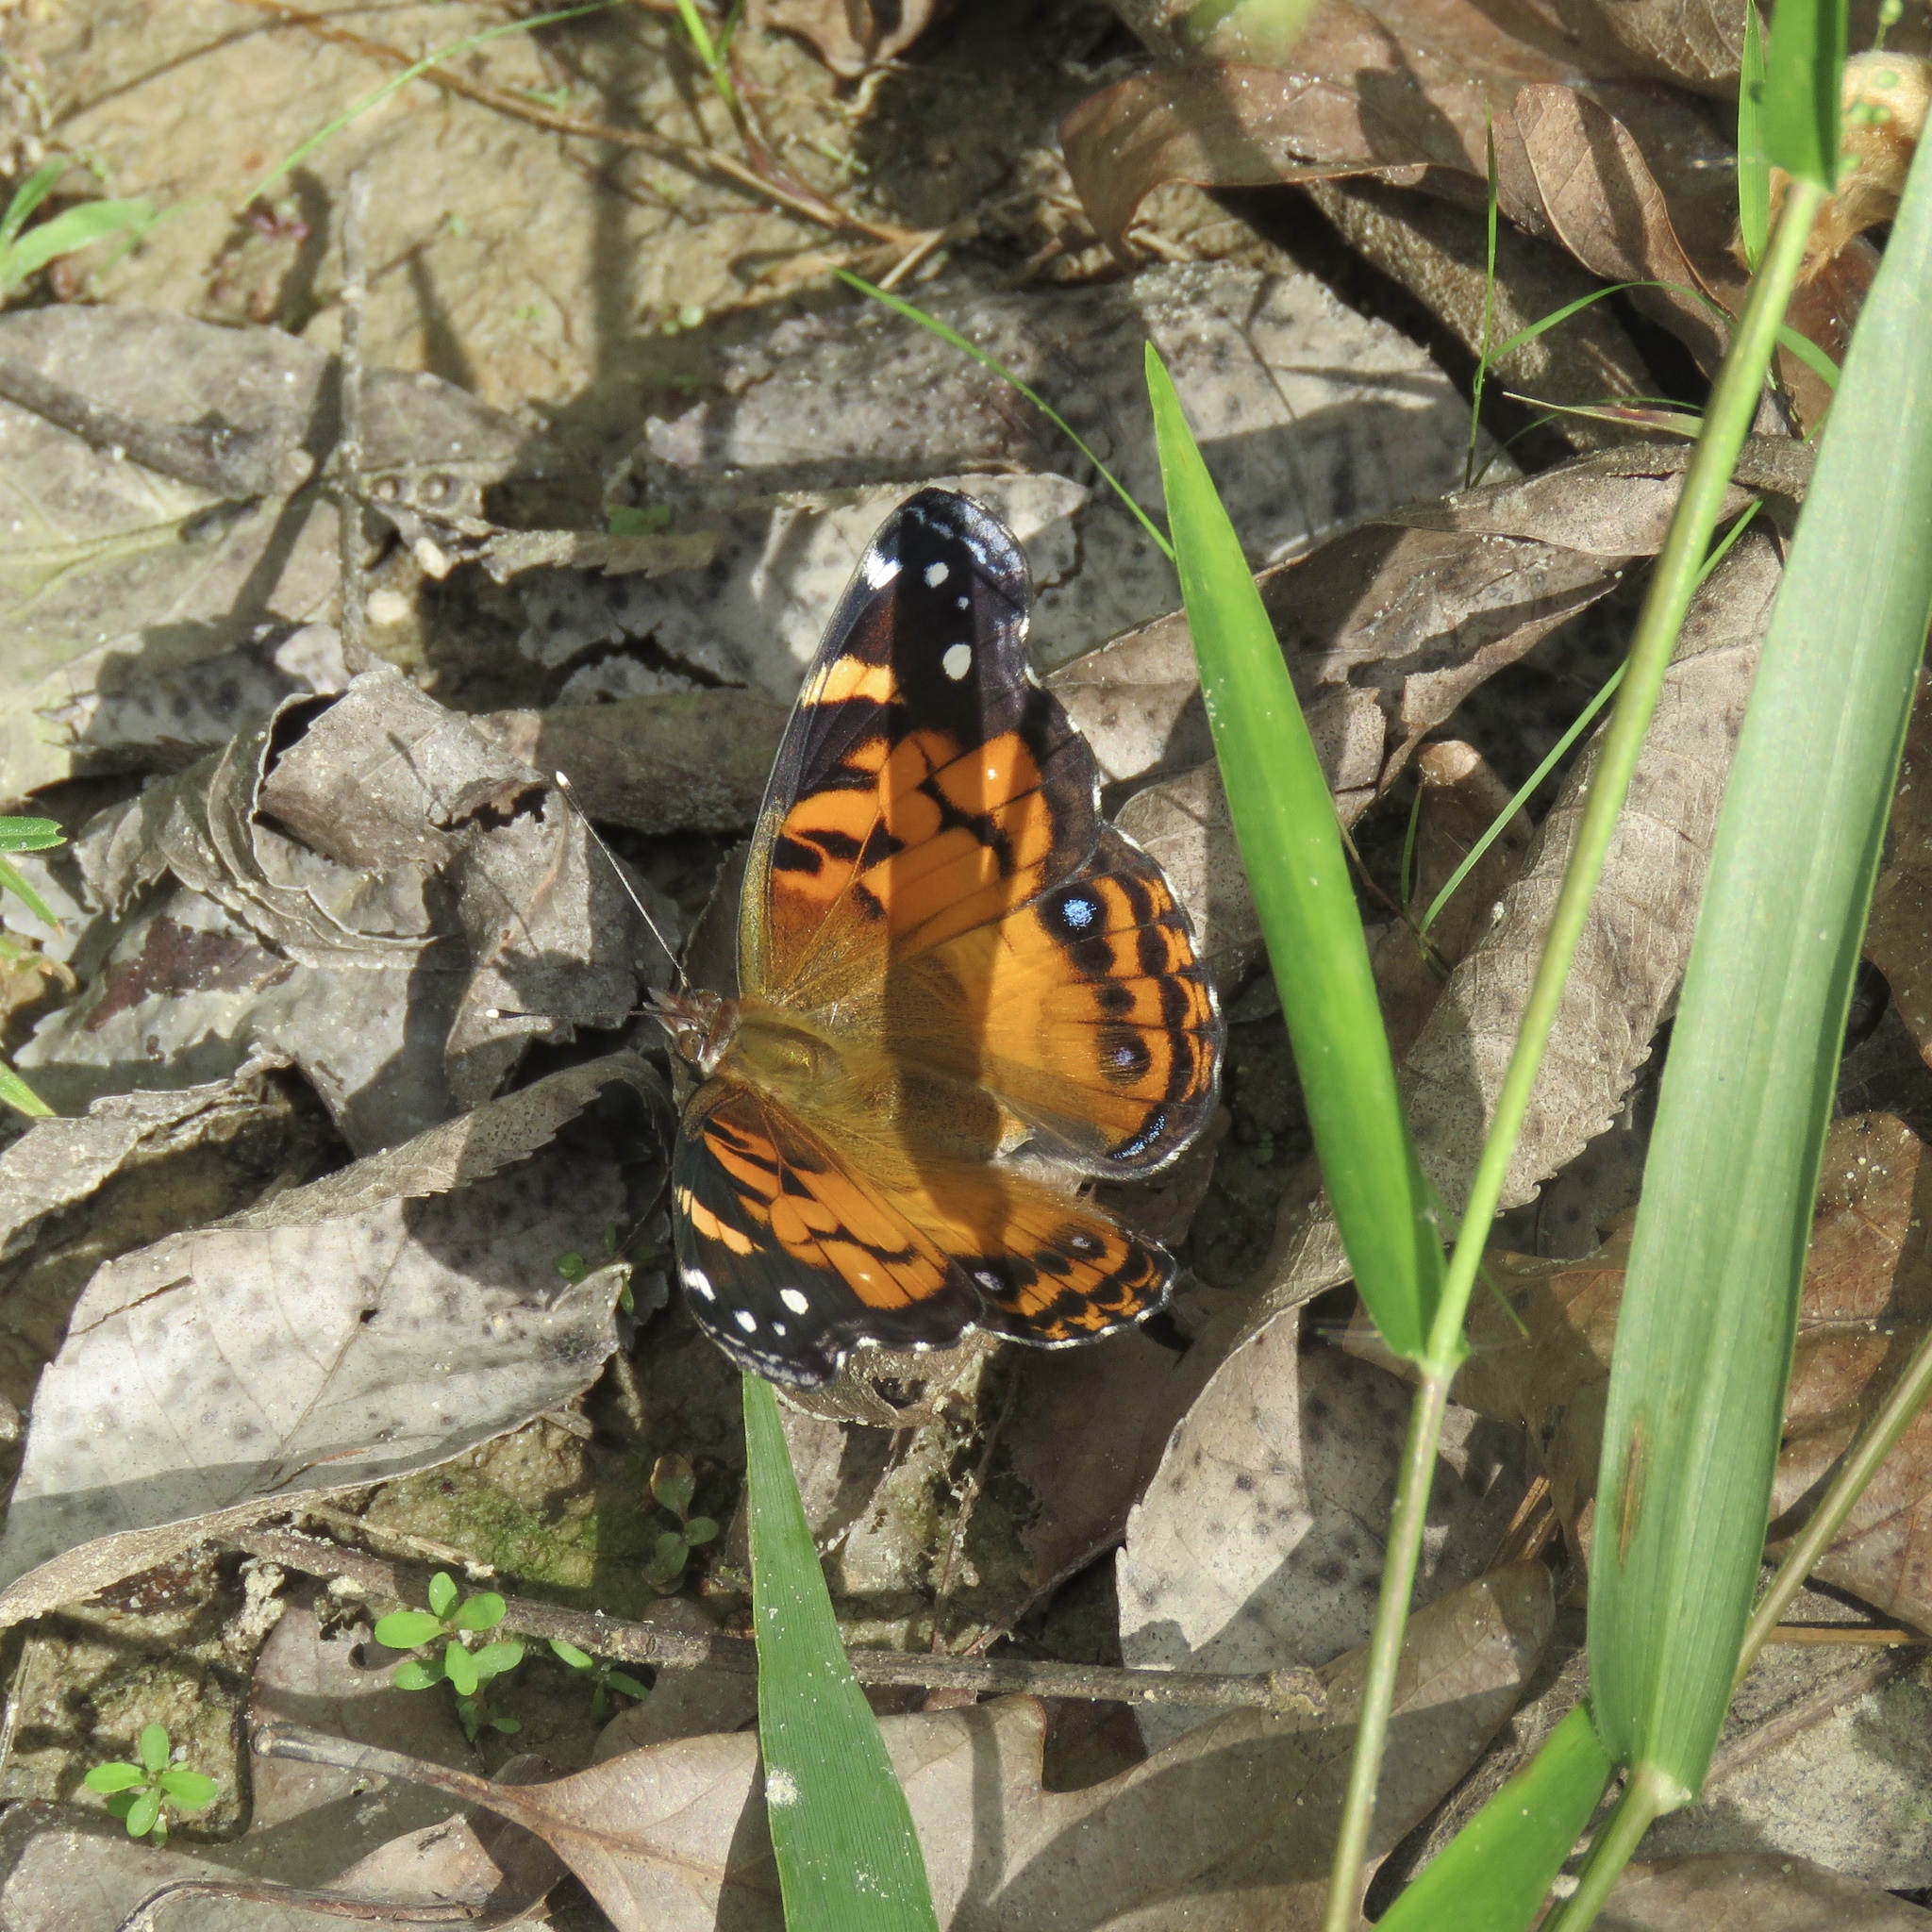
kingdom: Animalia
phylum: Arthropoda
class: Insecta
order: Lepidoptera
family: Nymphalidae
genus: Vanessa
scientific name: Vanessa virginiensis
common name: American lady
